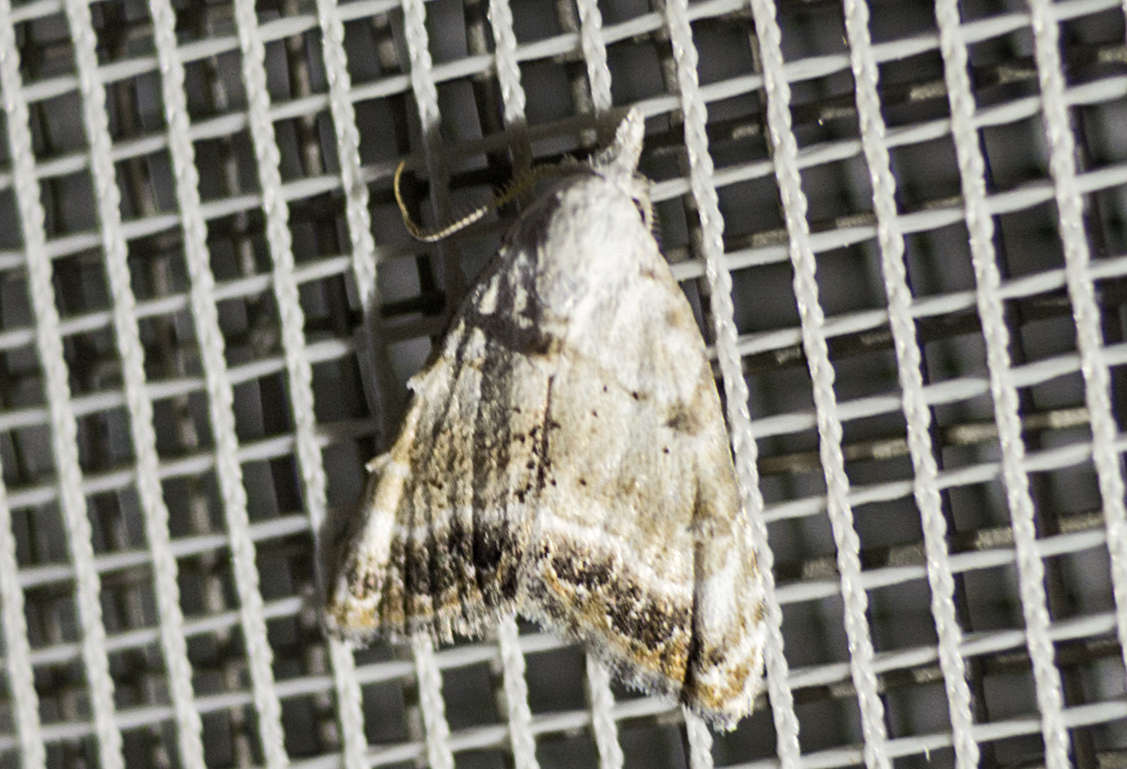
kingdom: Animalia
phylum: Arthropoda
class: Insecta
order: Lepidoptera
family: Nolidae
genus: Nola
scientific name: Nola chlamitulalis
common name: Jersey black arches
